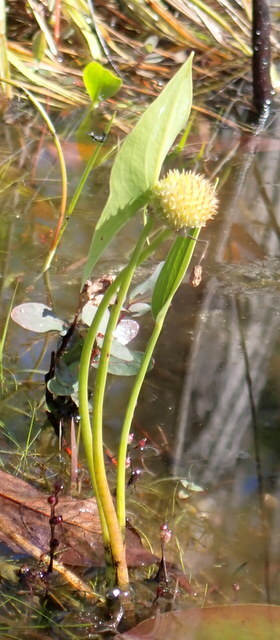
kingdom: Plantae
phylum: Tracheophyta
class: Liliopsida
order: Alismatales
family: Alismataceae
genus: Sagittaria
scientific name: Sagittaria engelmanniana
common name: Acid-water arrowhead
